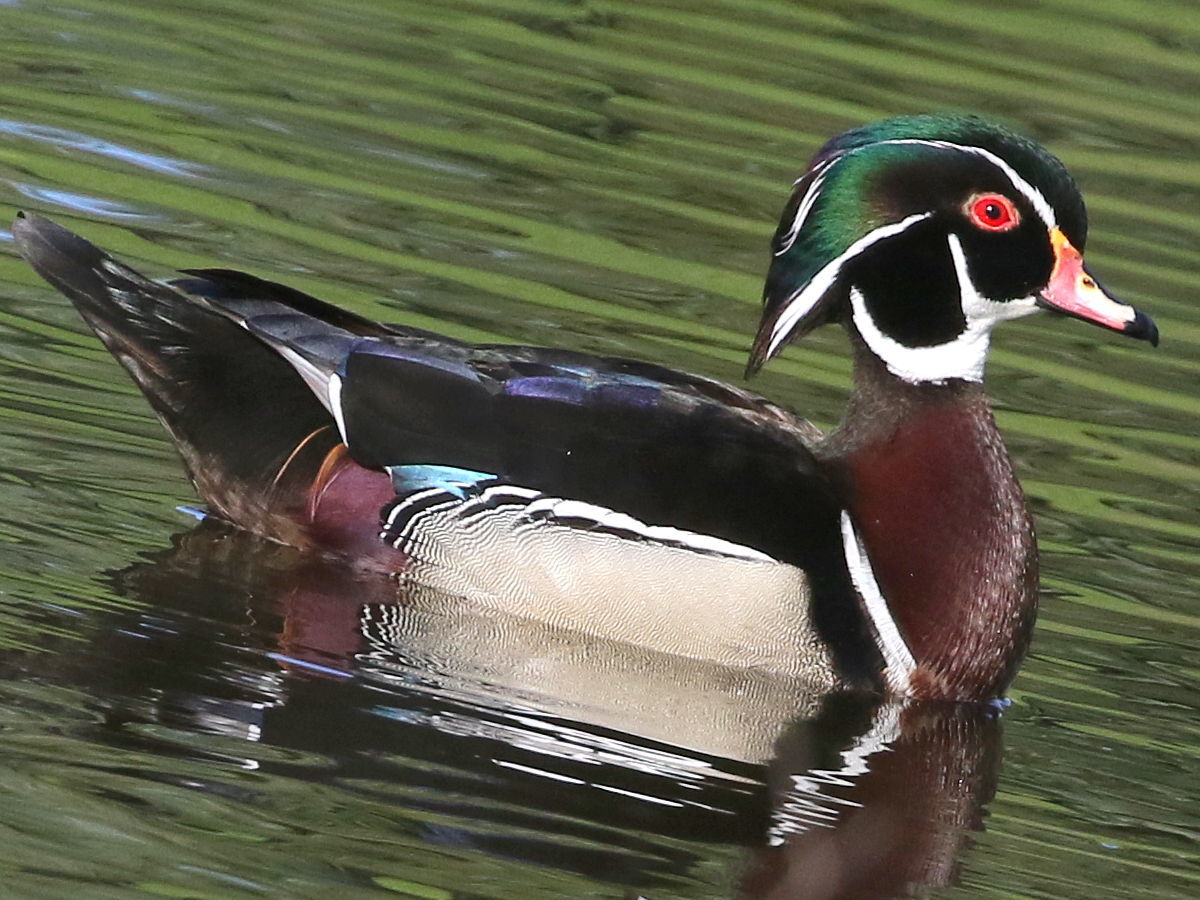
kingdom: Animalia
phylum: Chordata
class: Aves
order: Anseriformes
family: Anatidae
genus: Aix
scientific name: Aix sponsa
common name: Wood duck
